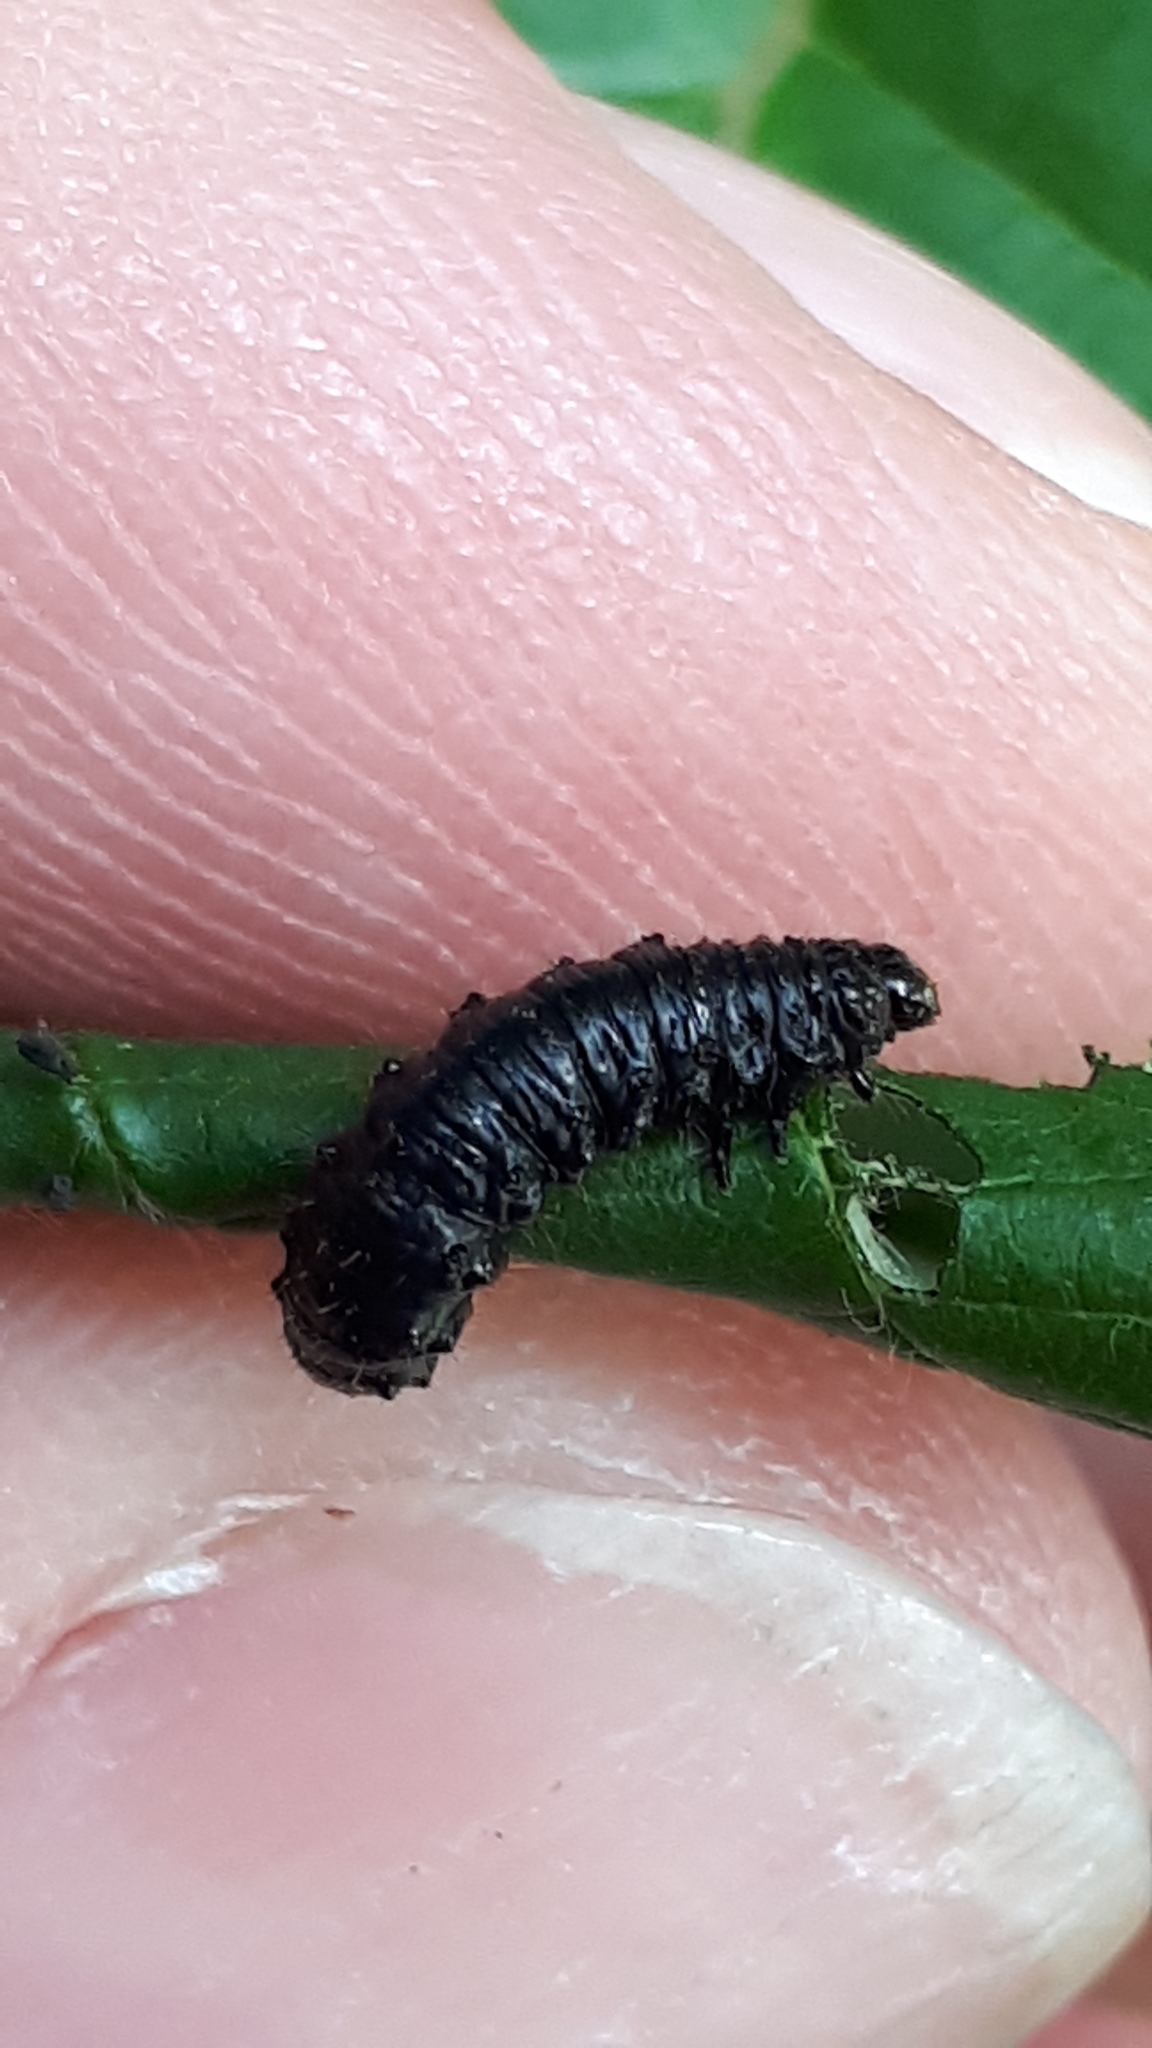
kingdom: Animalia
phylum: Arthropoda
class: Insecta
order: Coleoptera
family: Chrysomelidae
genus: Agelastica
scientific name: Agelastica alni
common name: Alder leaf beetle
